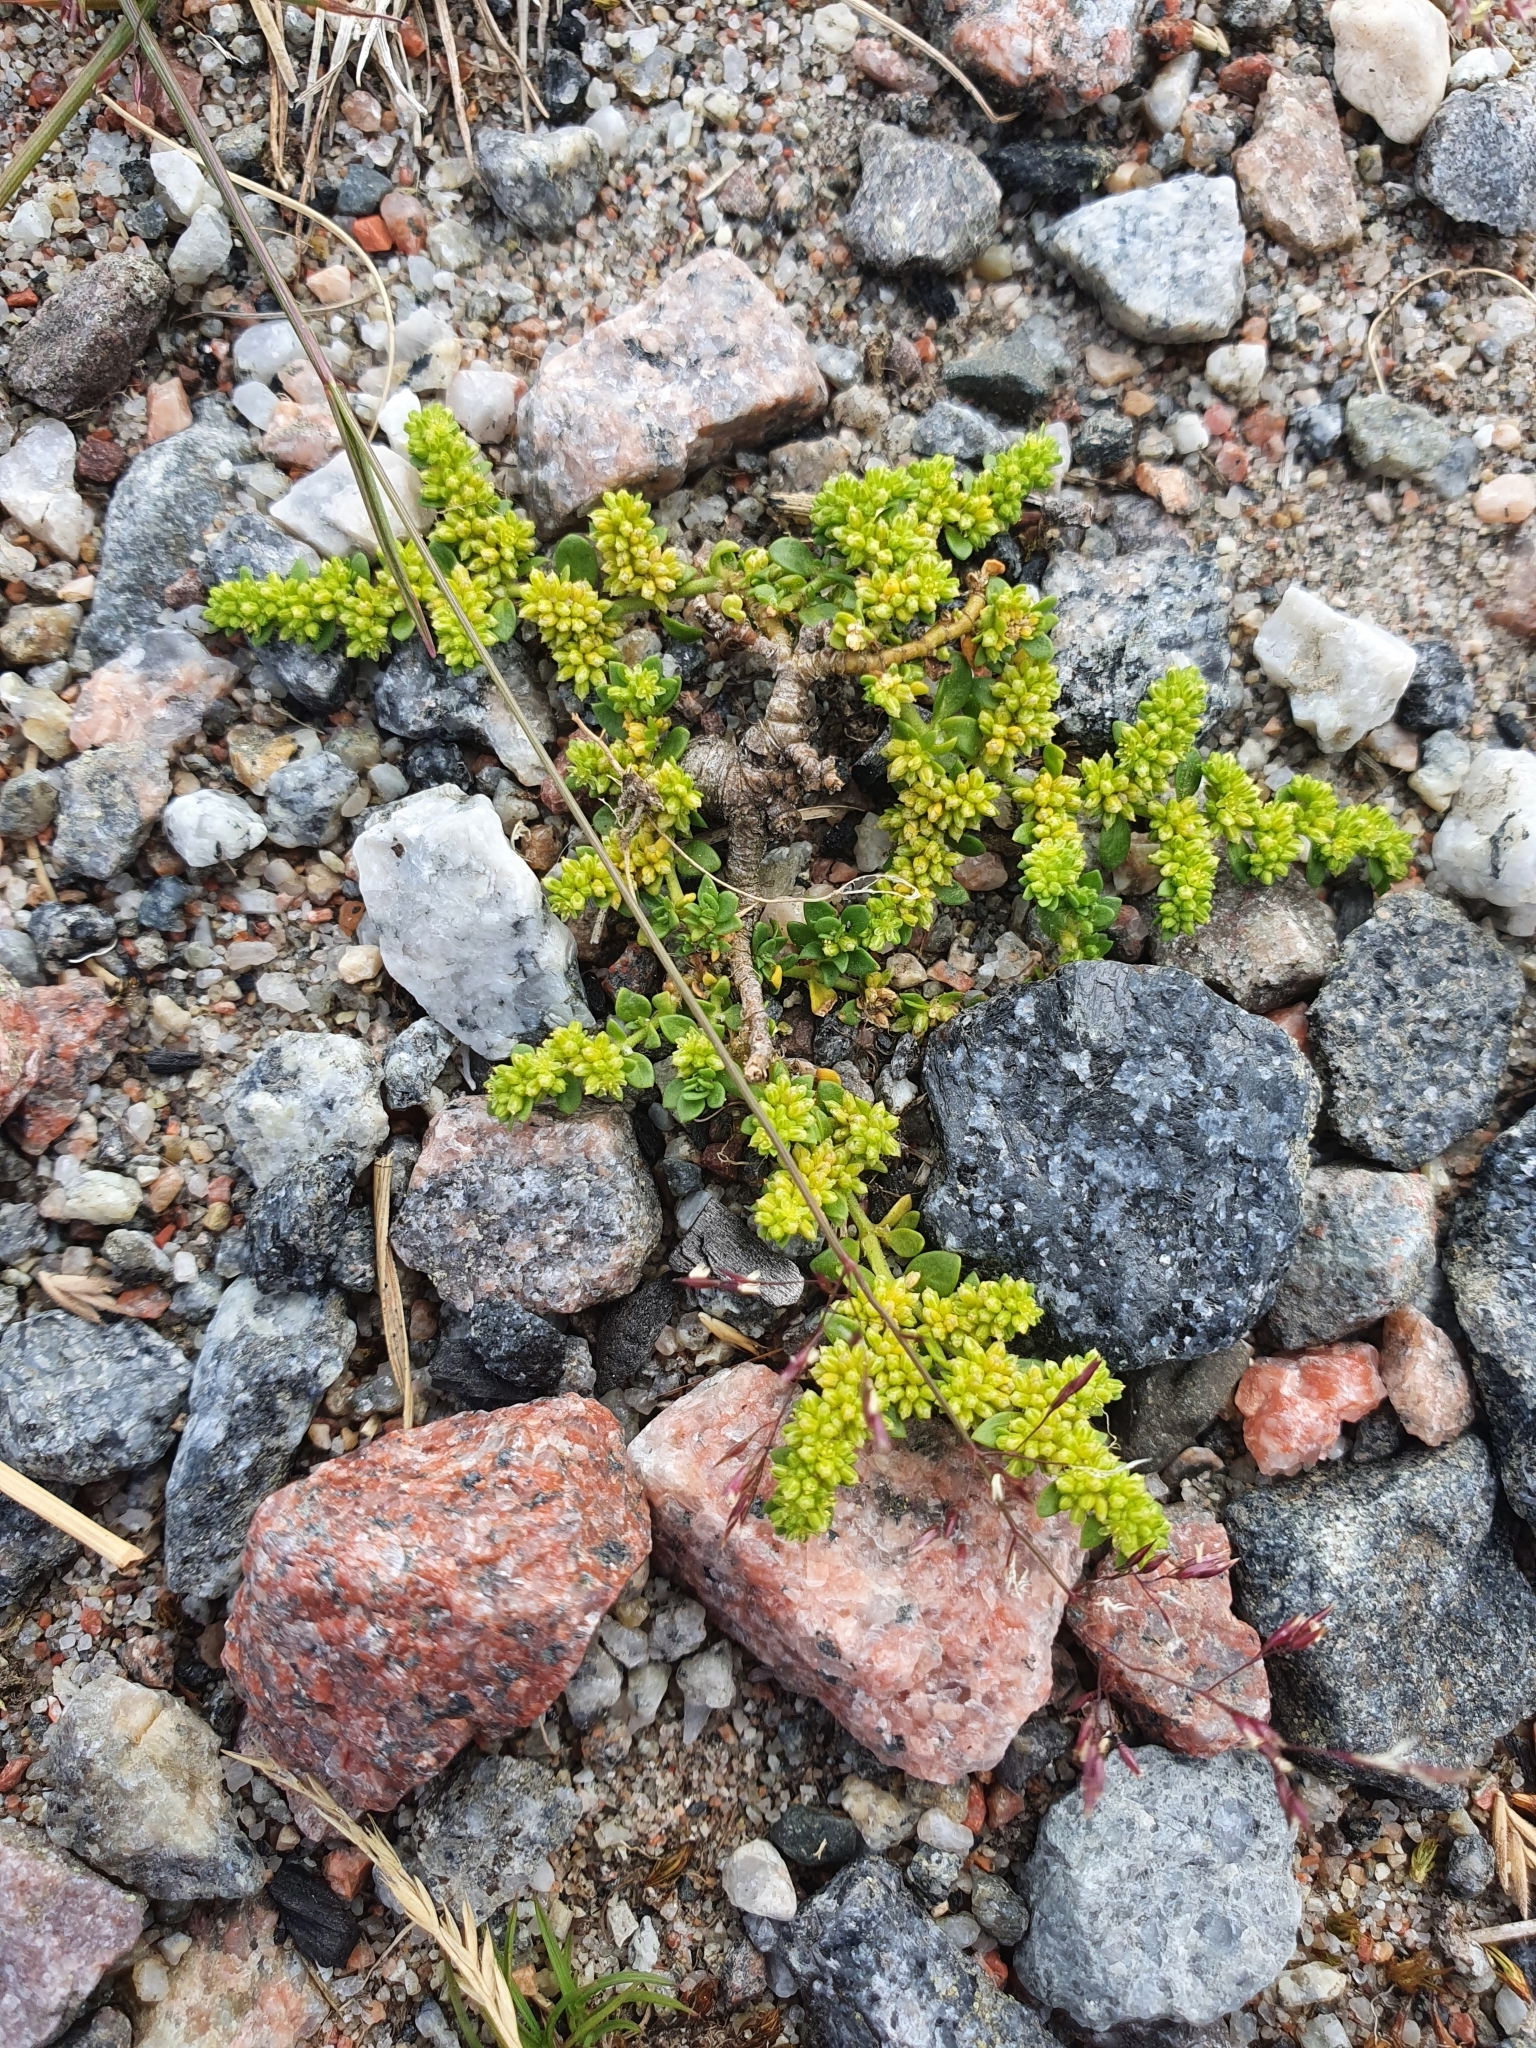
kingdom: Plantae
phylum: Tracheophyta
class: Magnoliopsida
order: Caryophyllales
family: Caryophyllaceae
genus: Herniaria
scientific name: Herniaria glabra
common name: Smooth rupturewort
